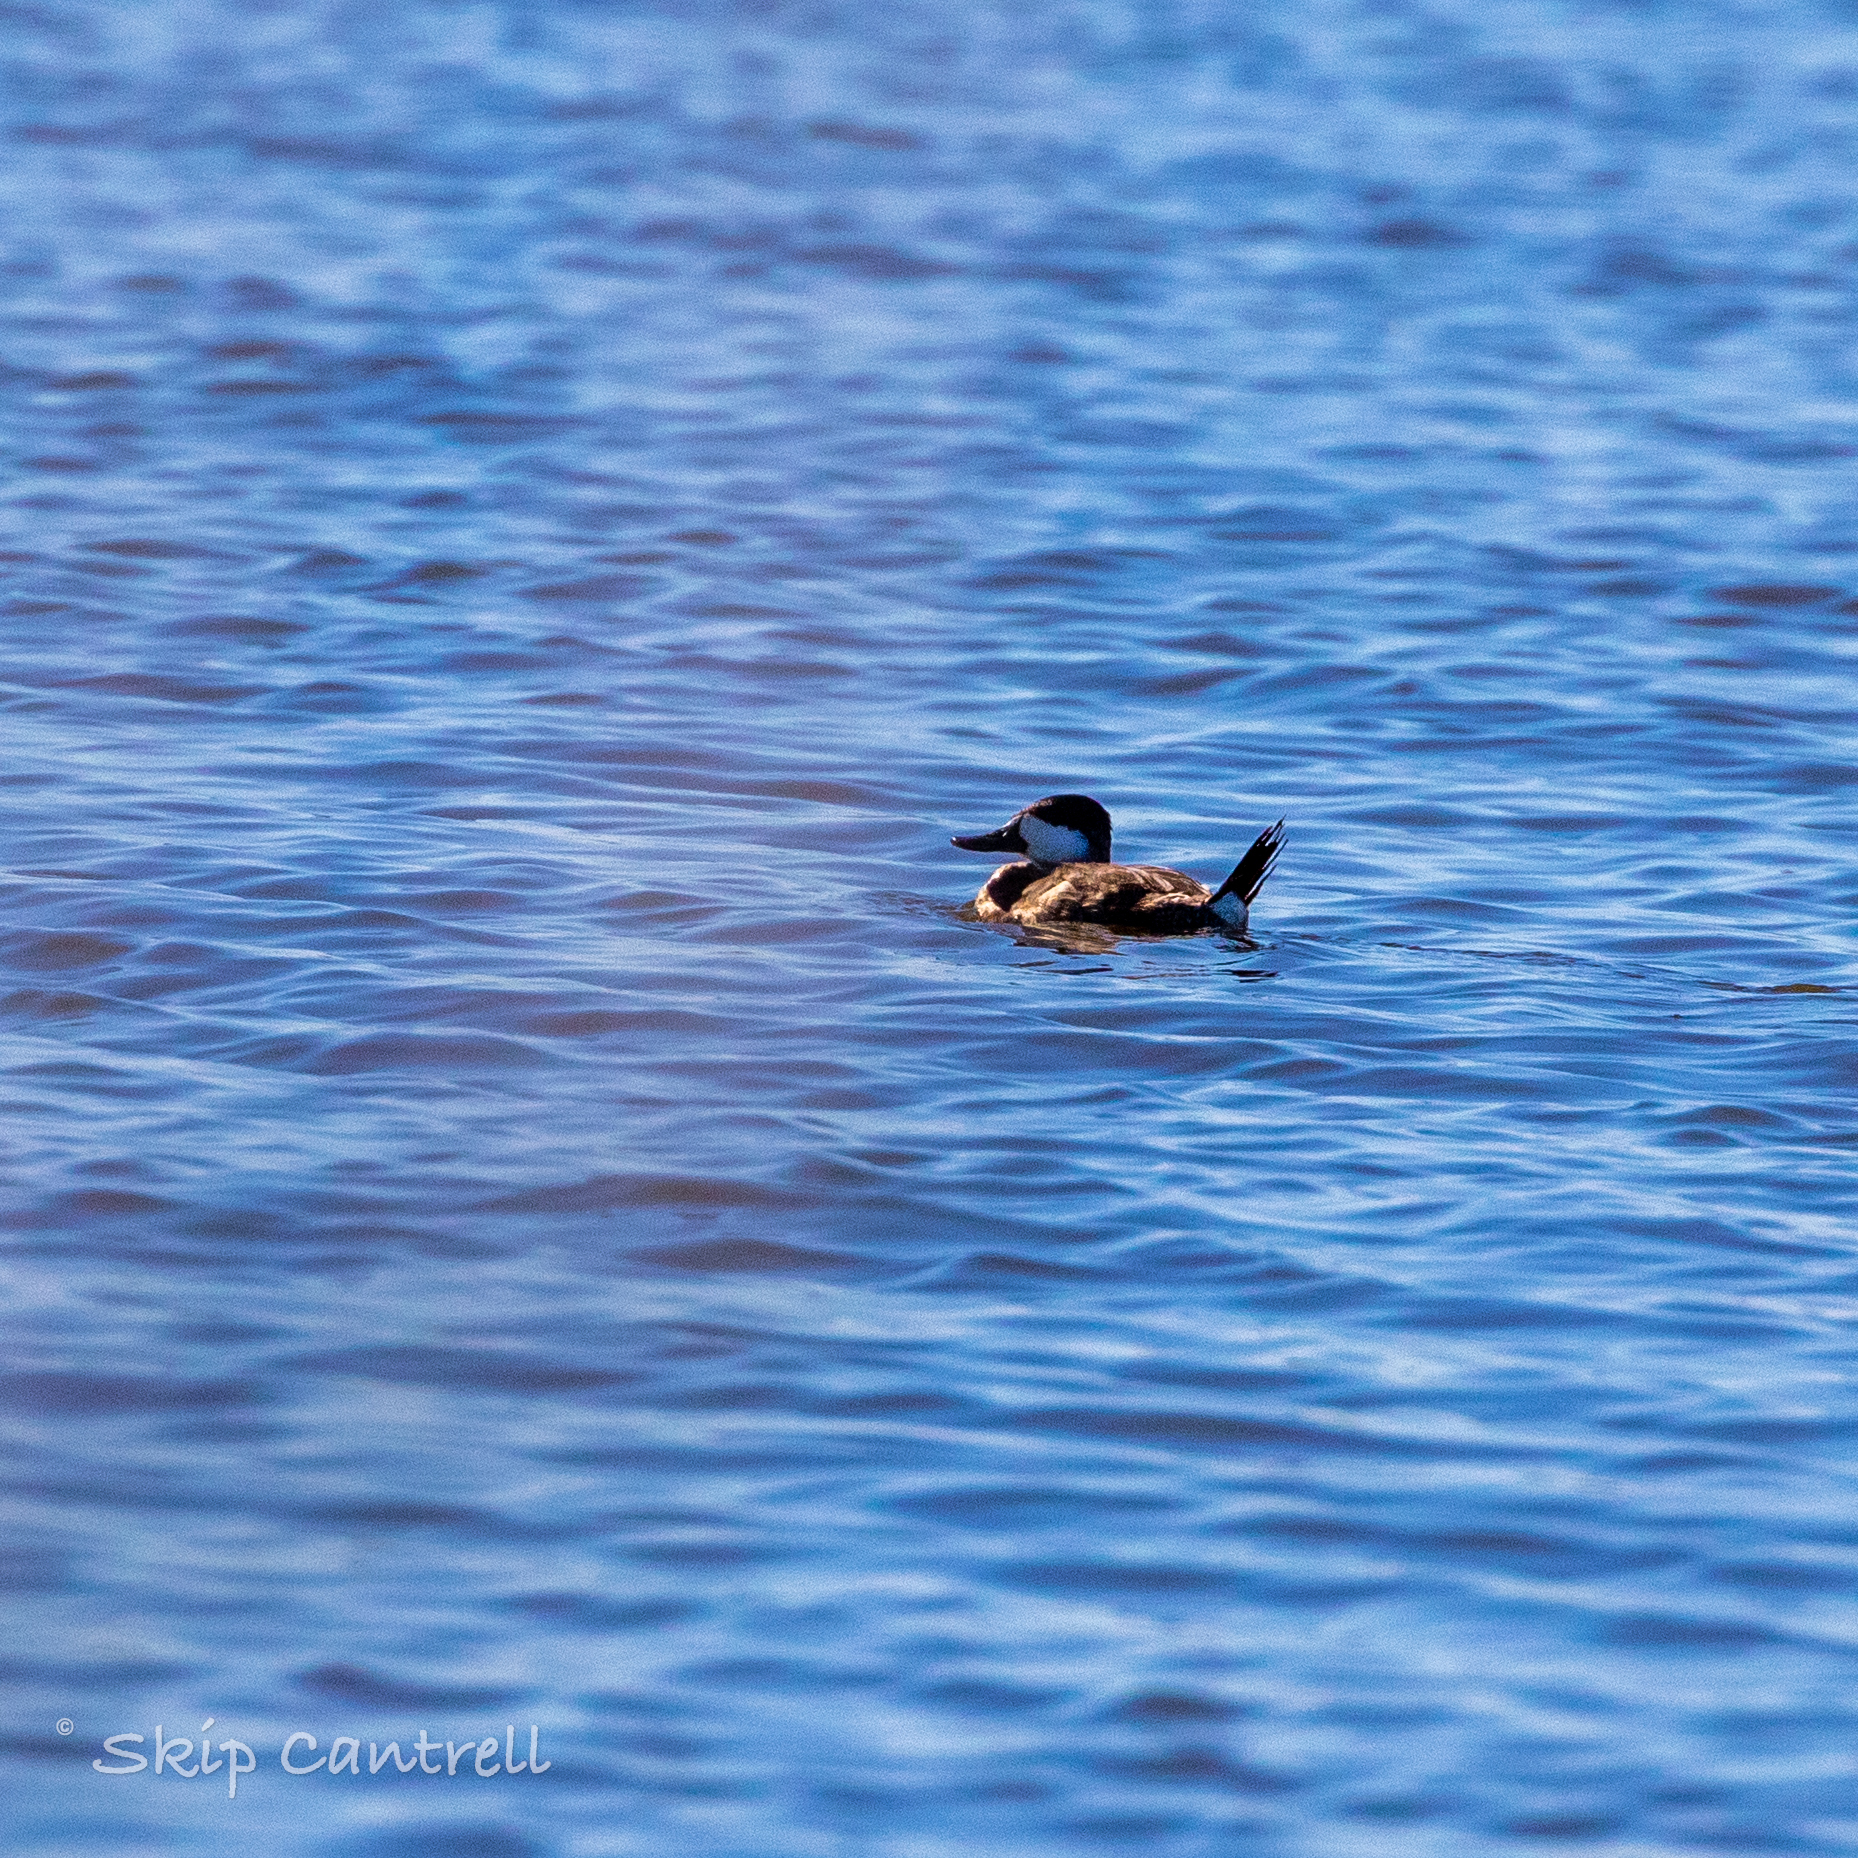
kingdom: Animalia
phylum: Chordata
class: Aves
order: Anseriformes
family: Anatidae
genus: Oxyura
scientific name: Oxyura jamaicensis
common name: Ruddy duck
